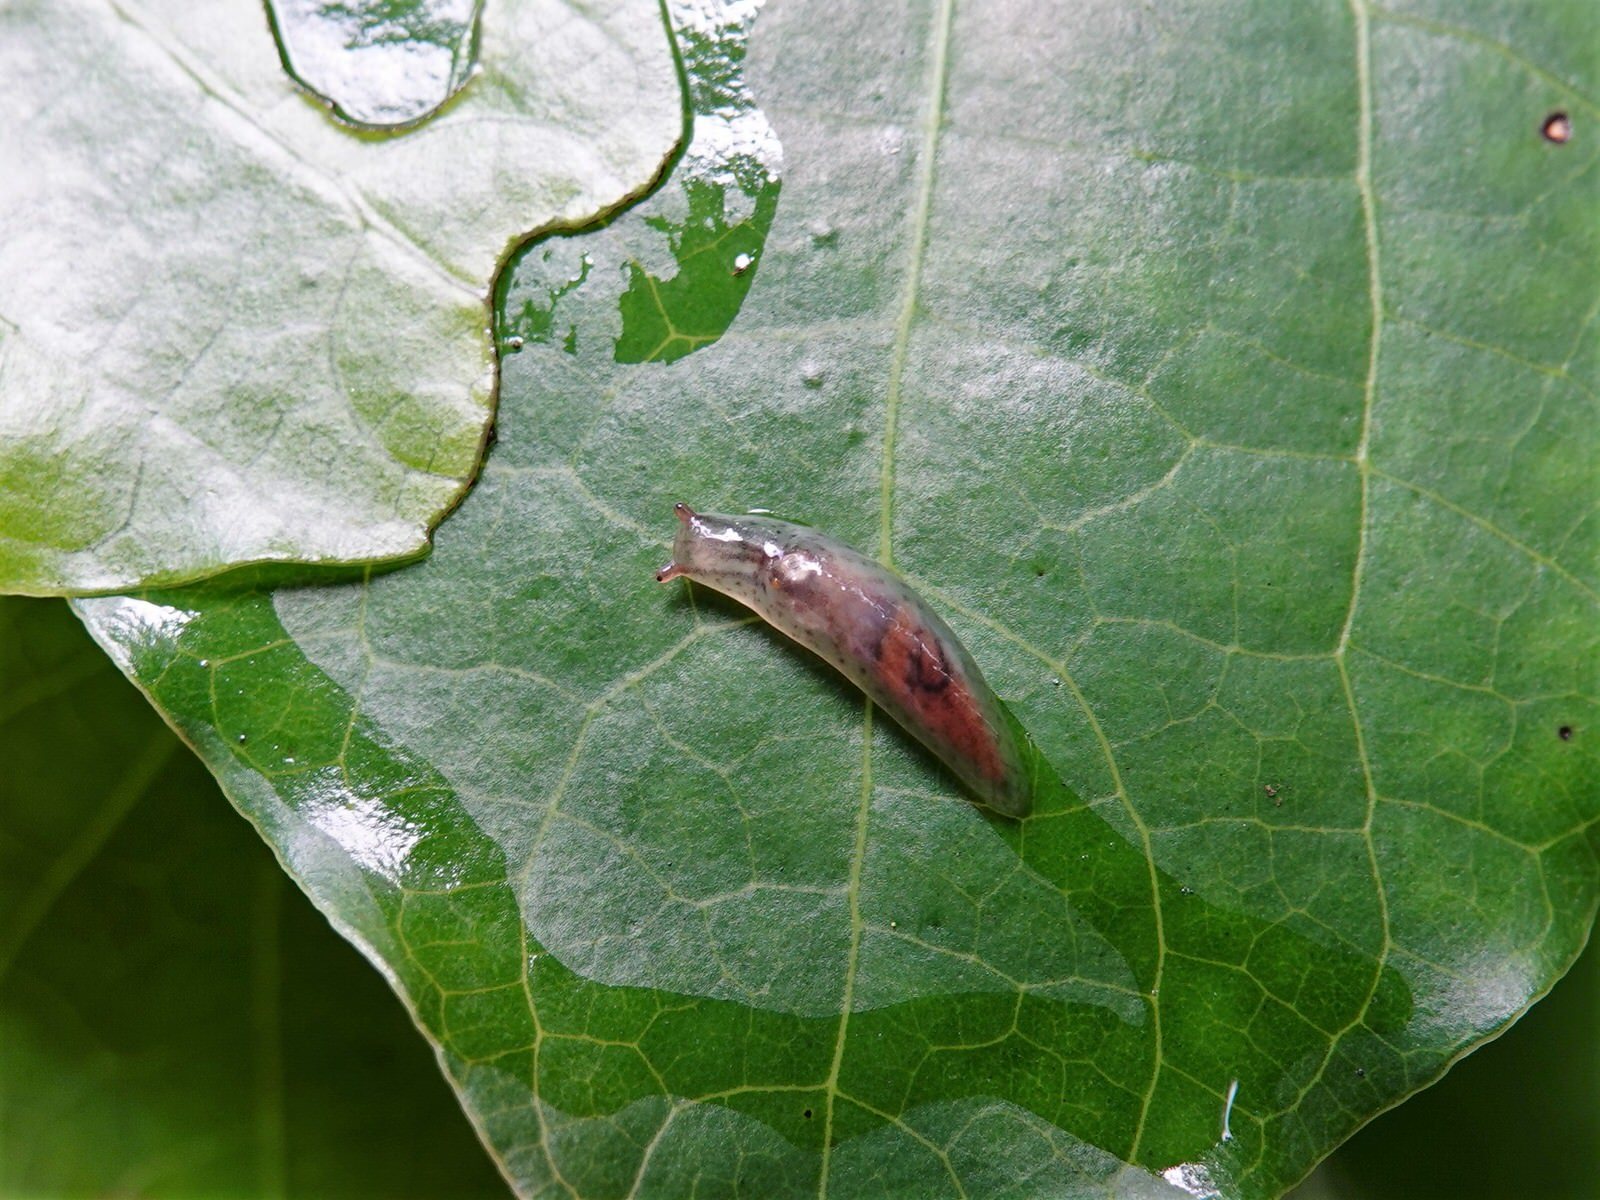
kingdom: Animalia
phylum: Mollusca
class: Gastropoda
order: Stylommatophora
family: Athoracophoridae
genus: Athoracophorus
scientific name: Athoracophorus bitentaculatus
